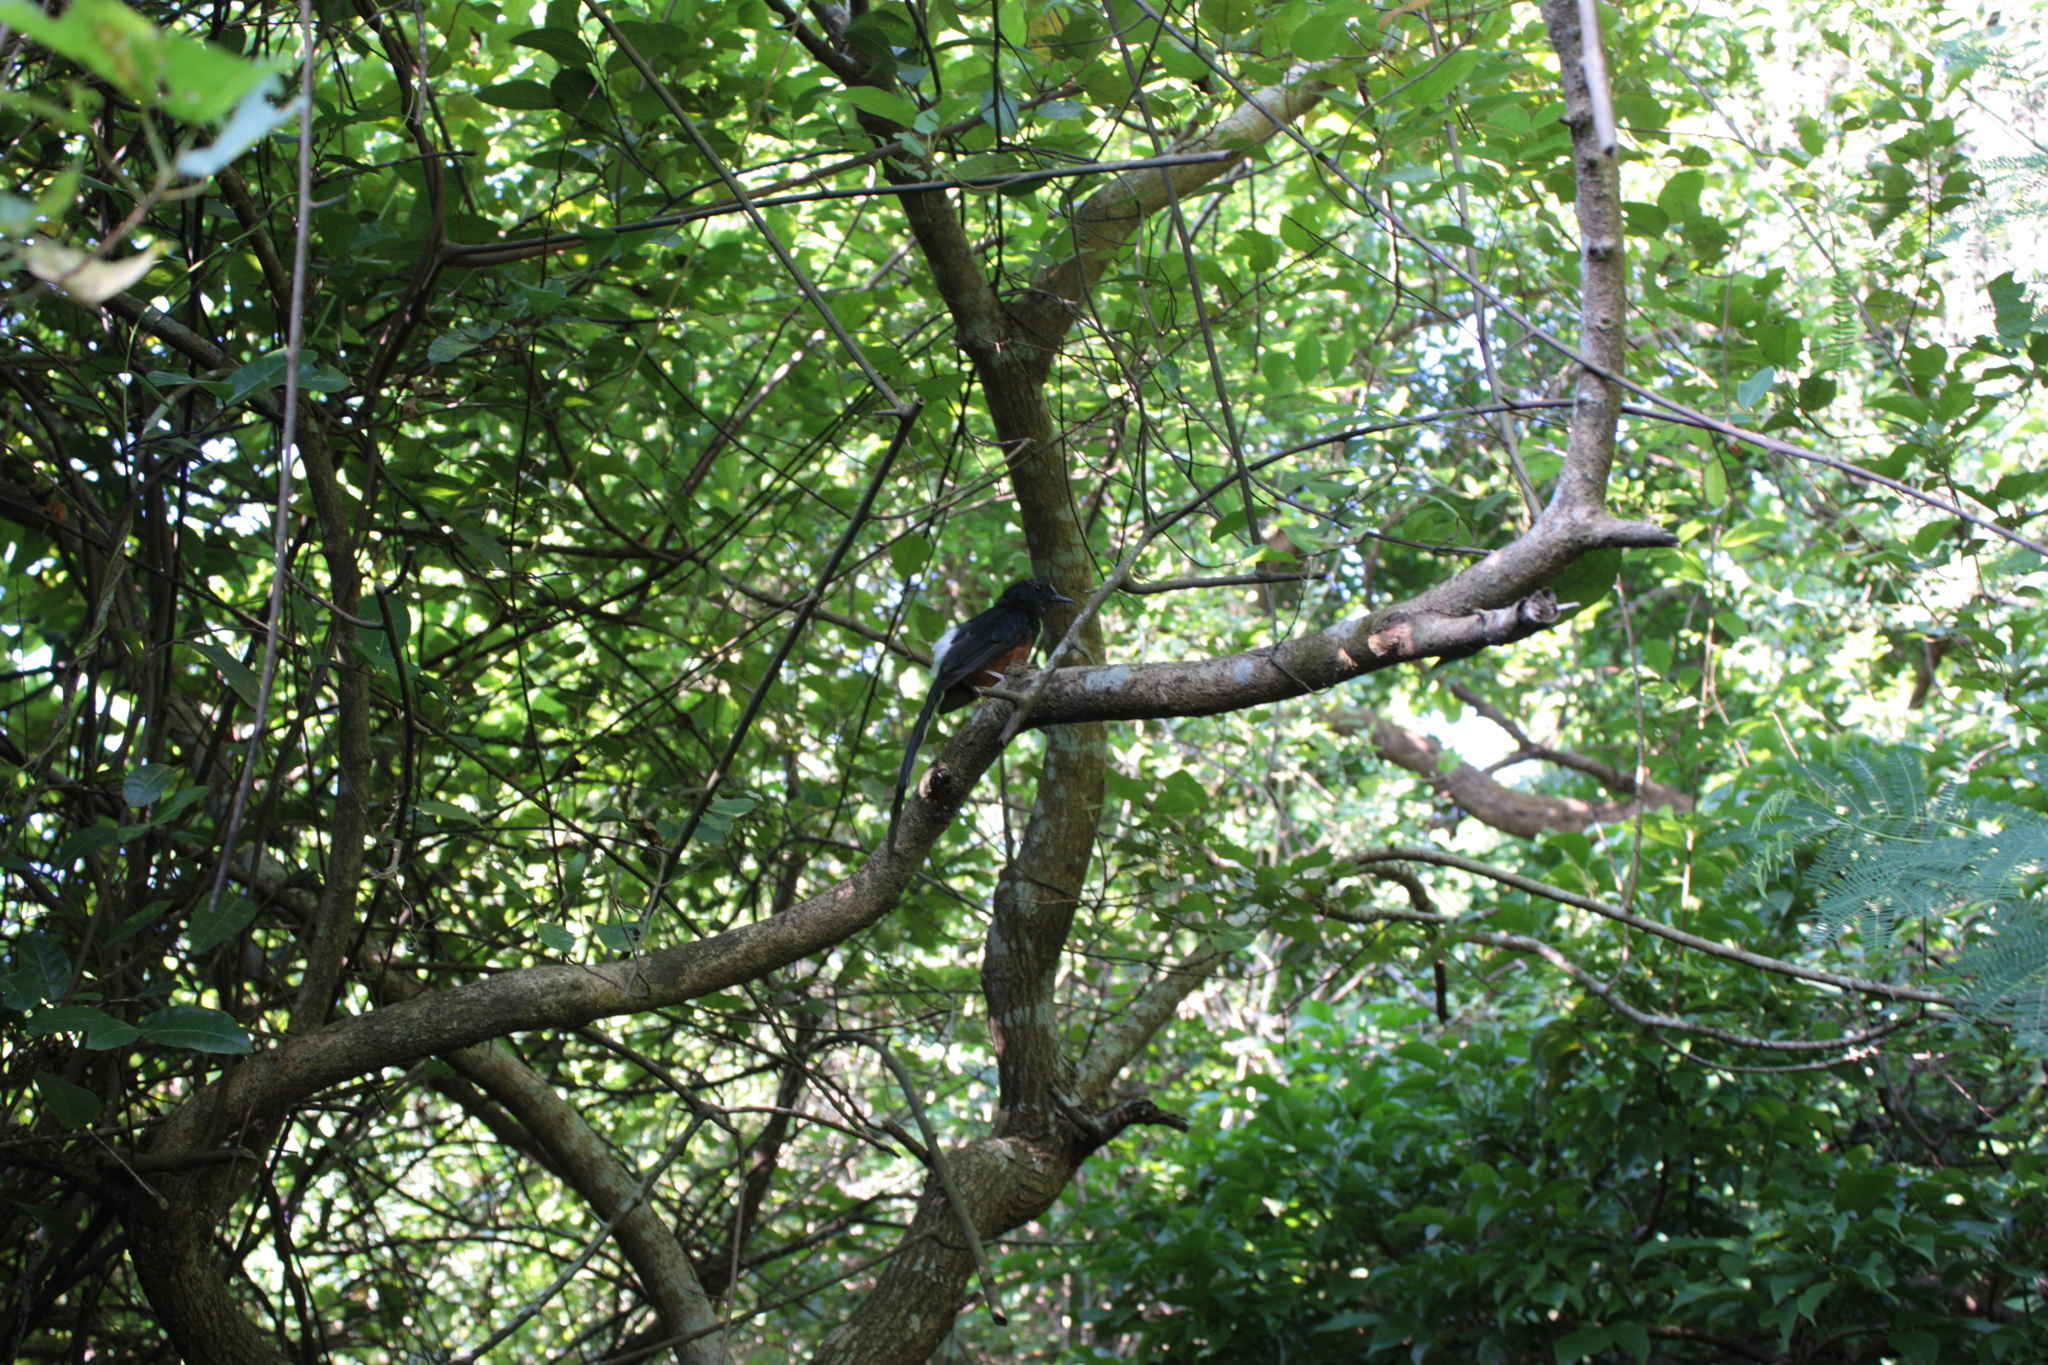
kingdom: Animalia
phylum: Chordata
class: Aves
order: Passeriformes
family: Muscicapidae
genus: Copsychus
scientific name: Copsychus malabaricus
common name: White-rumped shama
